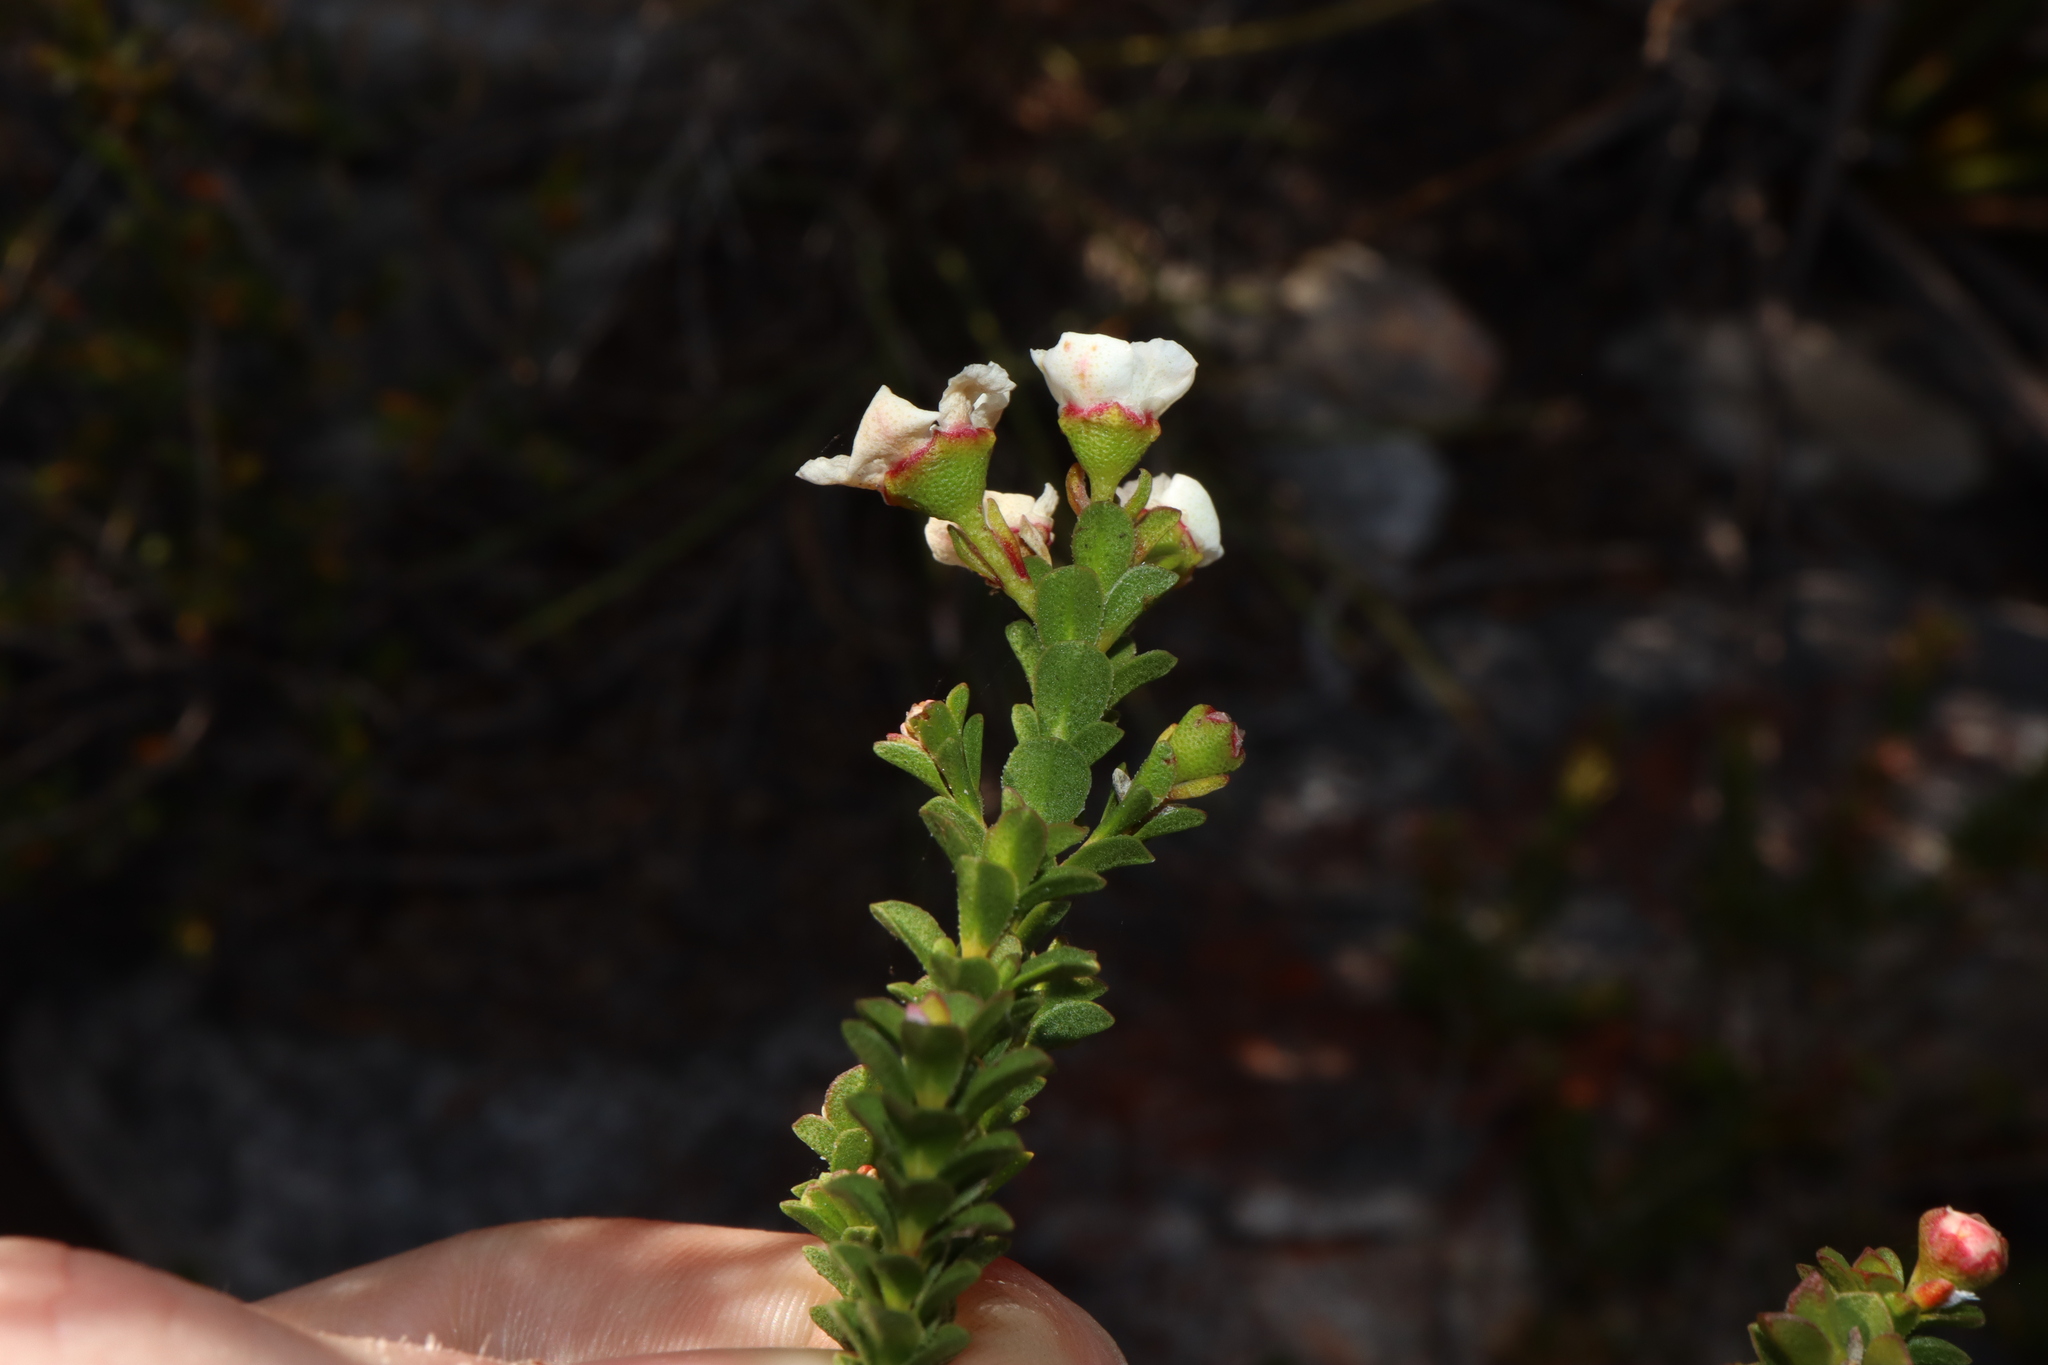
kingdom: Plantae
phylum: Tracheophyta
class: Magnoliopsida
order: Myrtales
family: Myrtaceae
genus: Anticoryne
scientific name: Anticoryne ovalifolia
